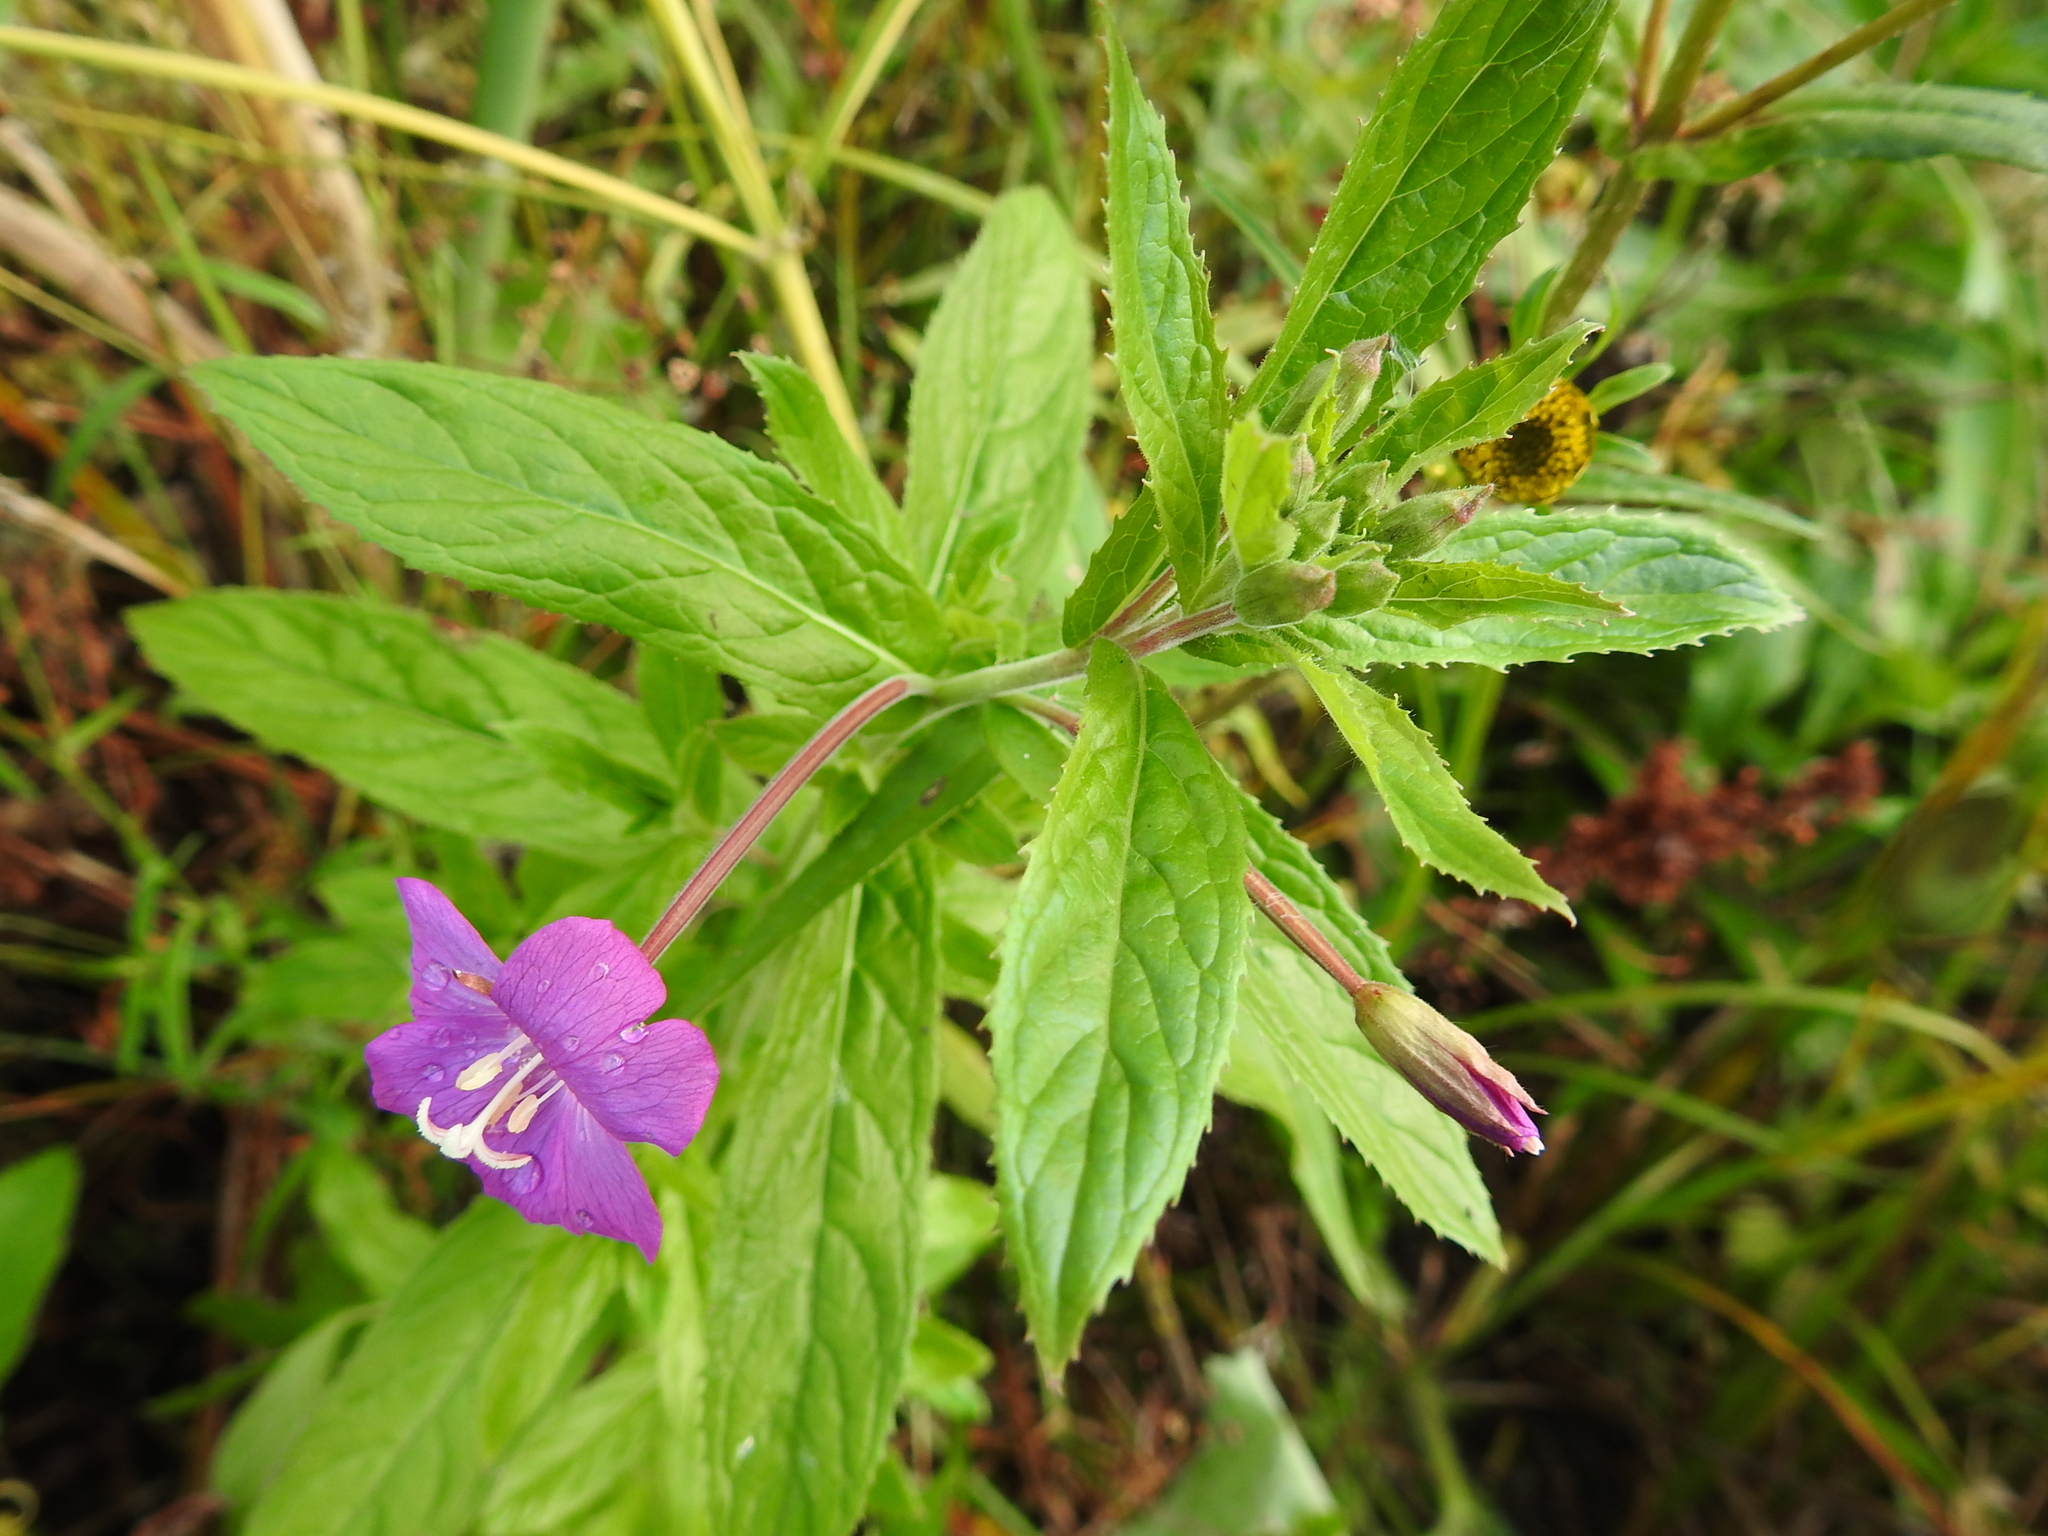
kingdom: Plantae
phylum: Tracheophyta
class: Magnoliopsida
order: Myrtales
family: Onagraceae
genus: Epilobium
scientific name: Epilobium hirsutum
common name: Great willowherb
